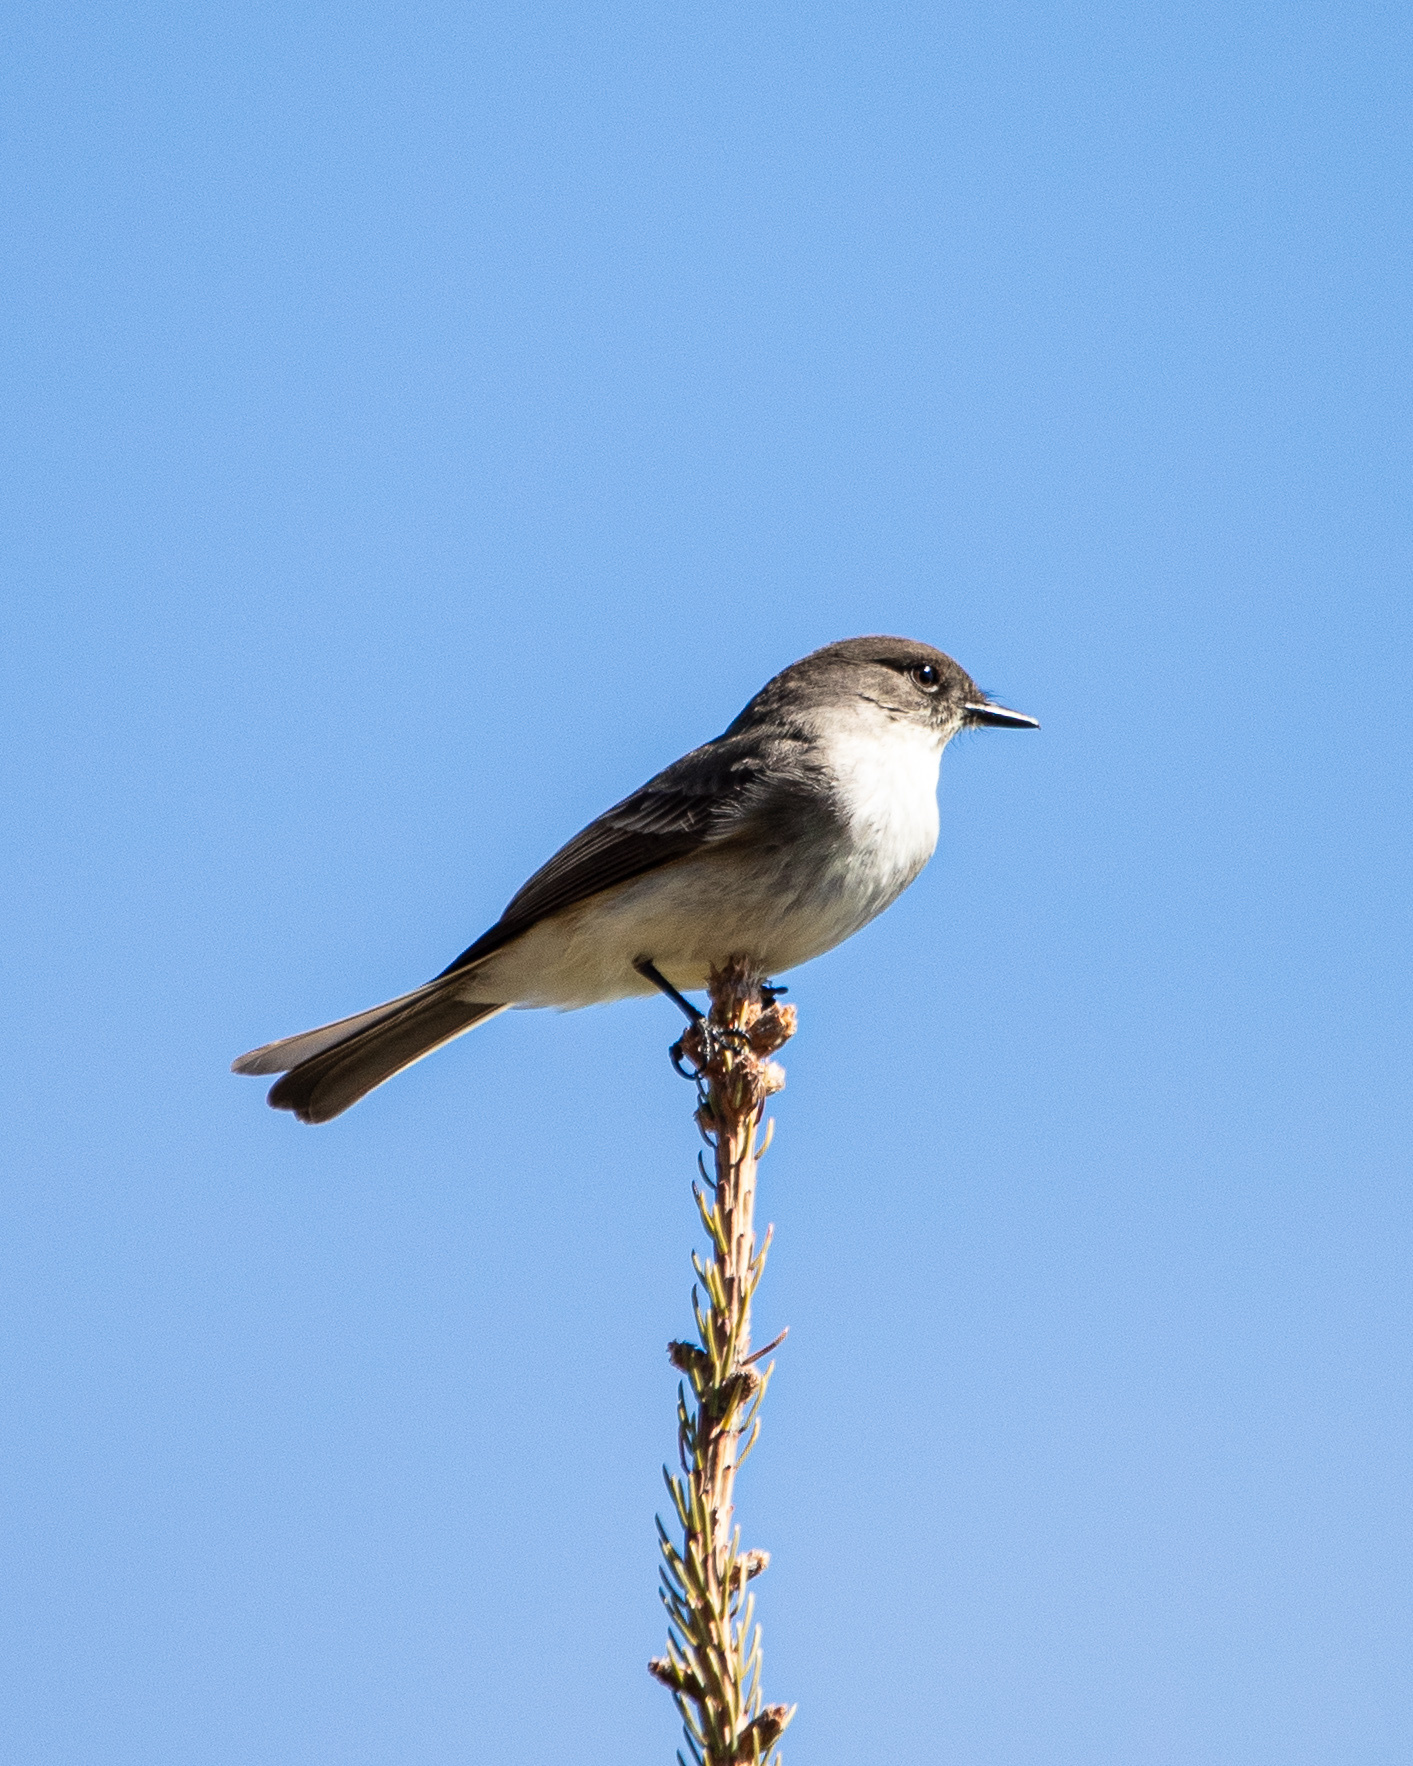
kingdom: Animalia
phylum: Chordata
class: Aves
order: Passeriformes
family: Tyrannidae
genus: Sayornis
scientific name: Sayornis phoebe
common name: Eastern phoebe
